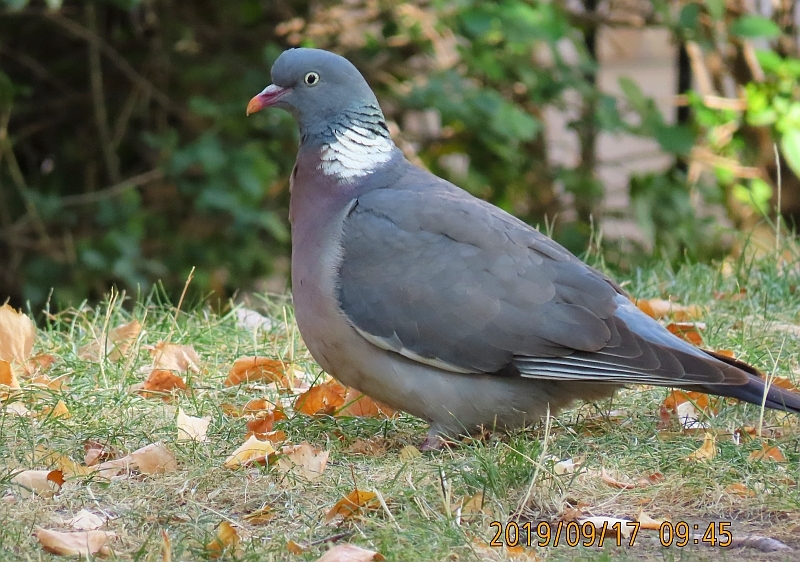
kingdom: Animalia
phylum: Chordata
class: Aves
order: Columbiformes
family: Columbidae
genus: Columba
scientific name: Columba palumbus
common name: Common wood pigeon
